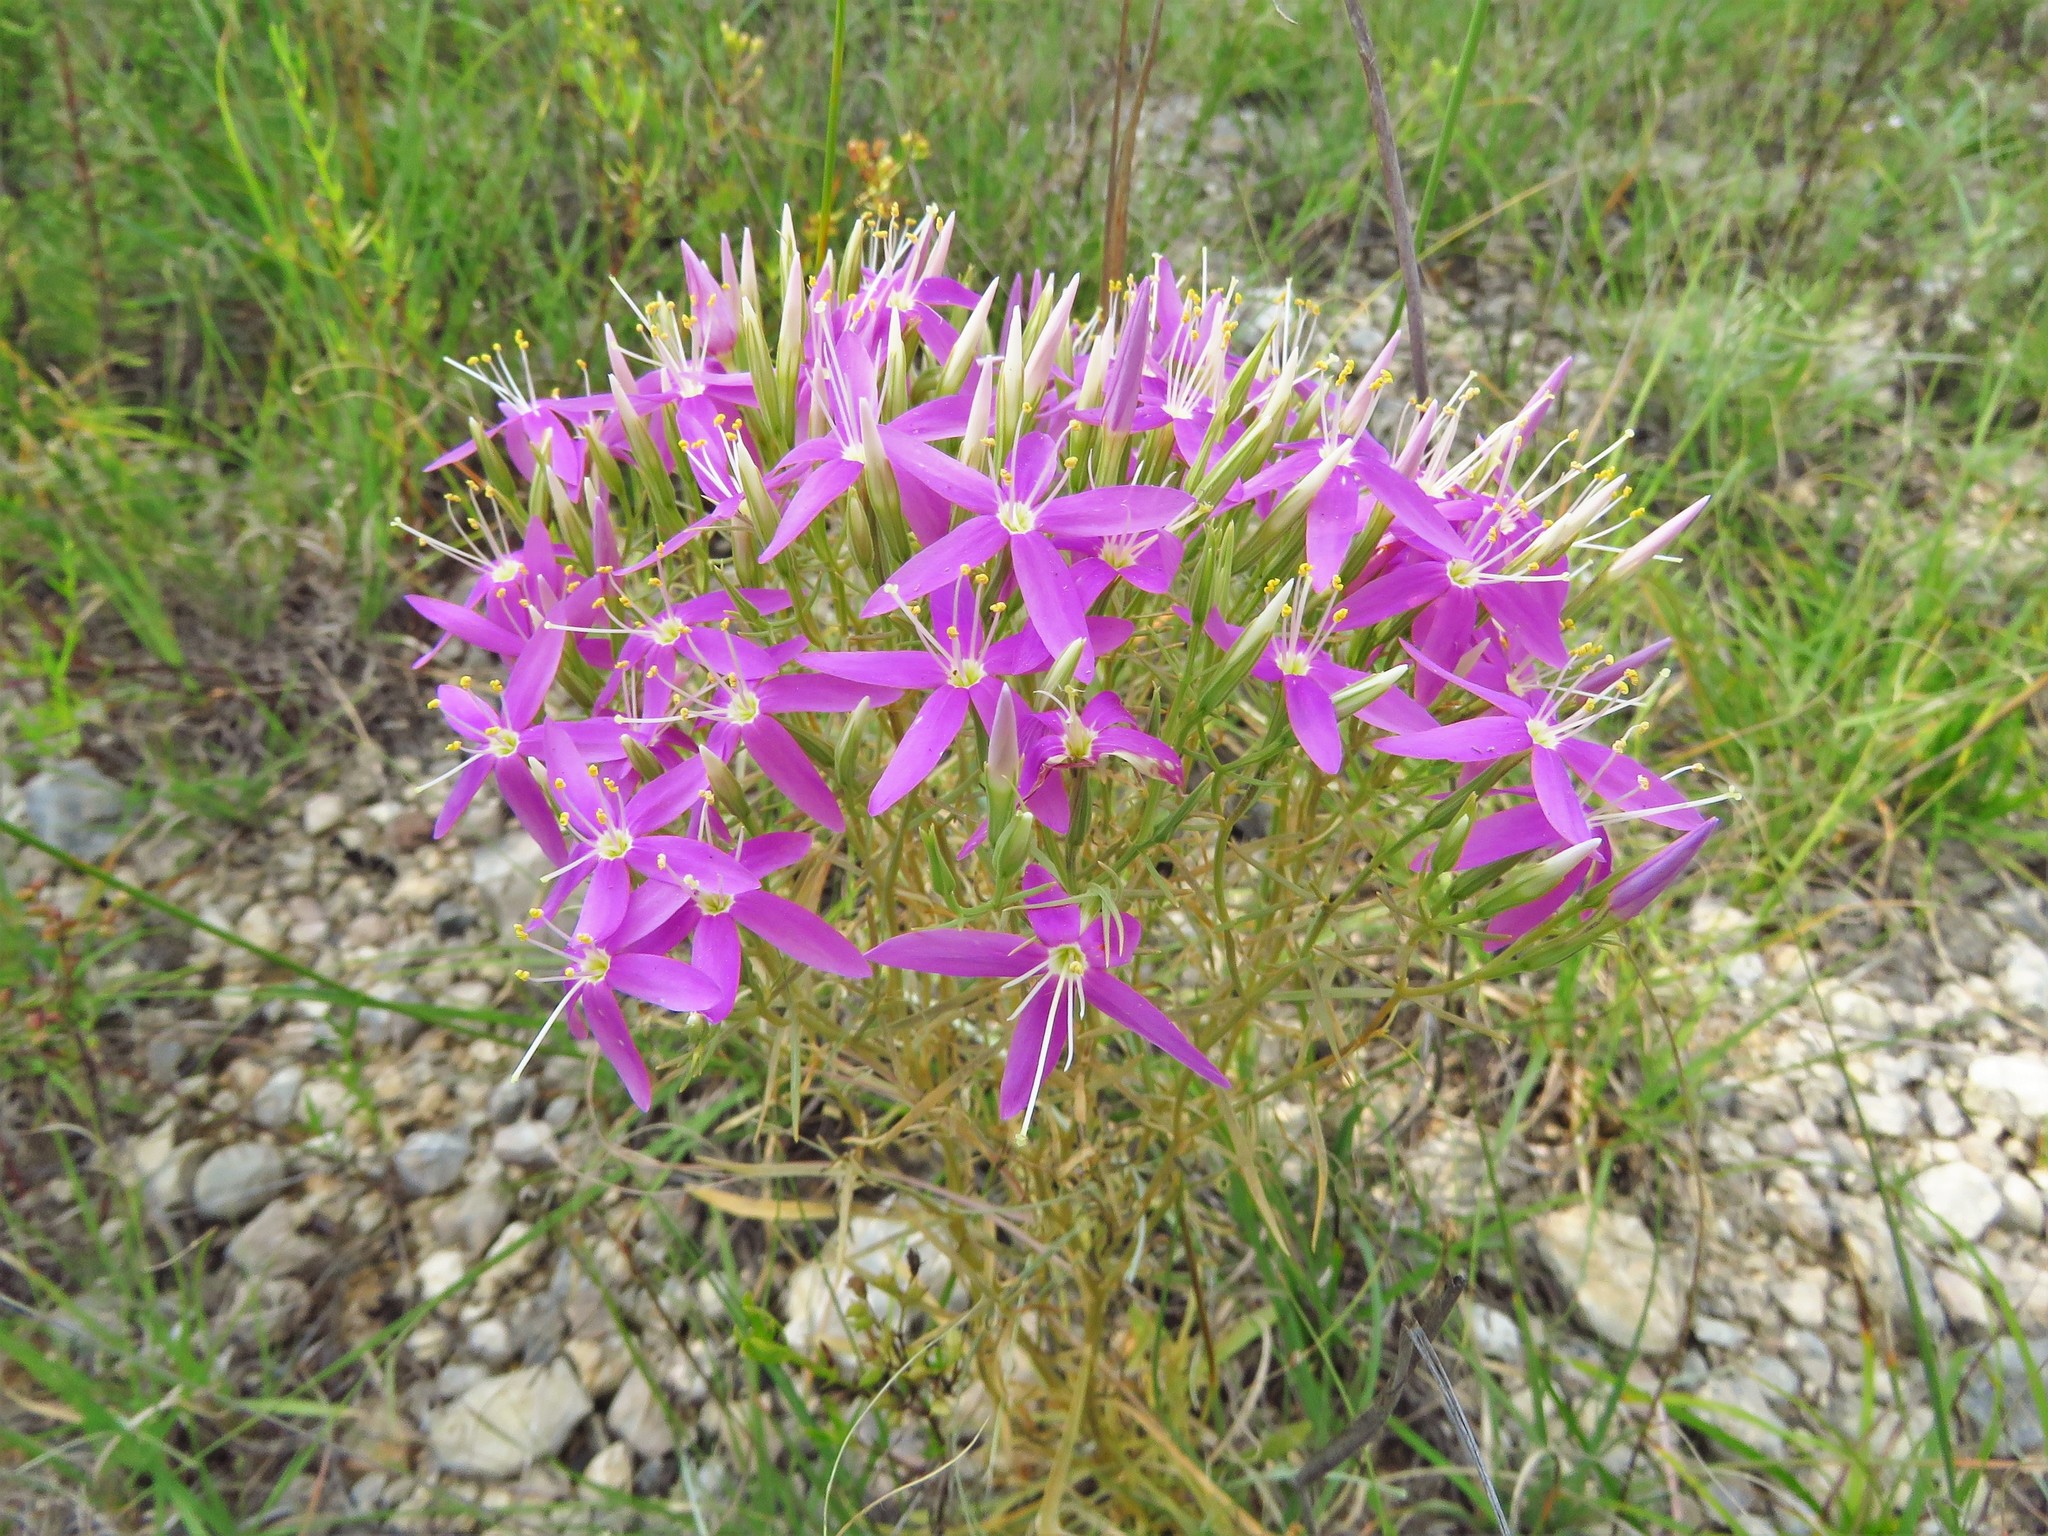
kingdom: Plantae
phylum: Tracheophyta
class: Magnoliopsida
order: Gentianales
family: Gentianaceae
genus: Zeltnera
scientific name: Zeltnera beyrichii
